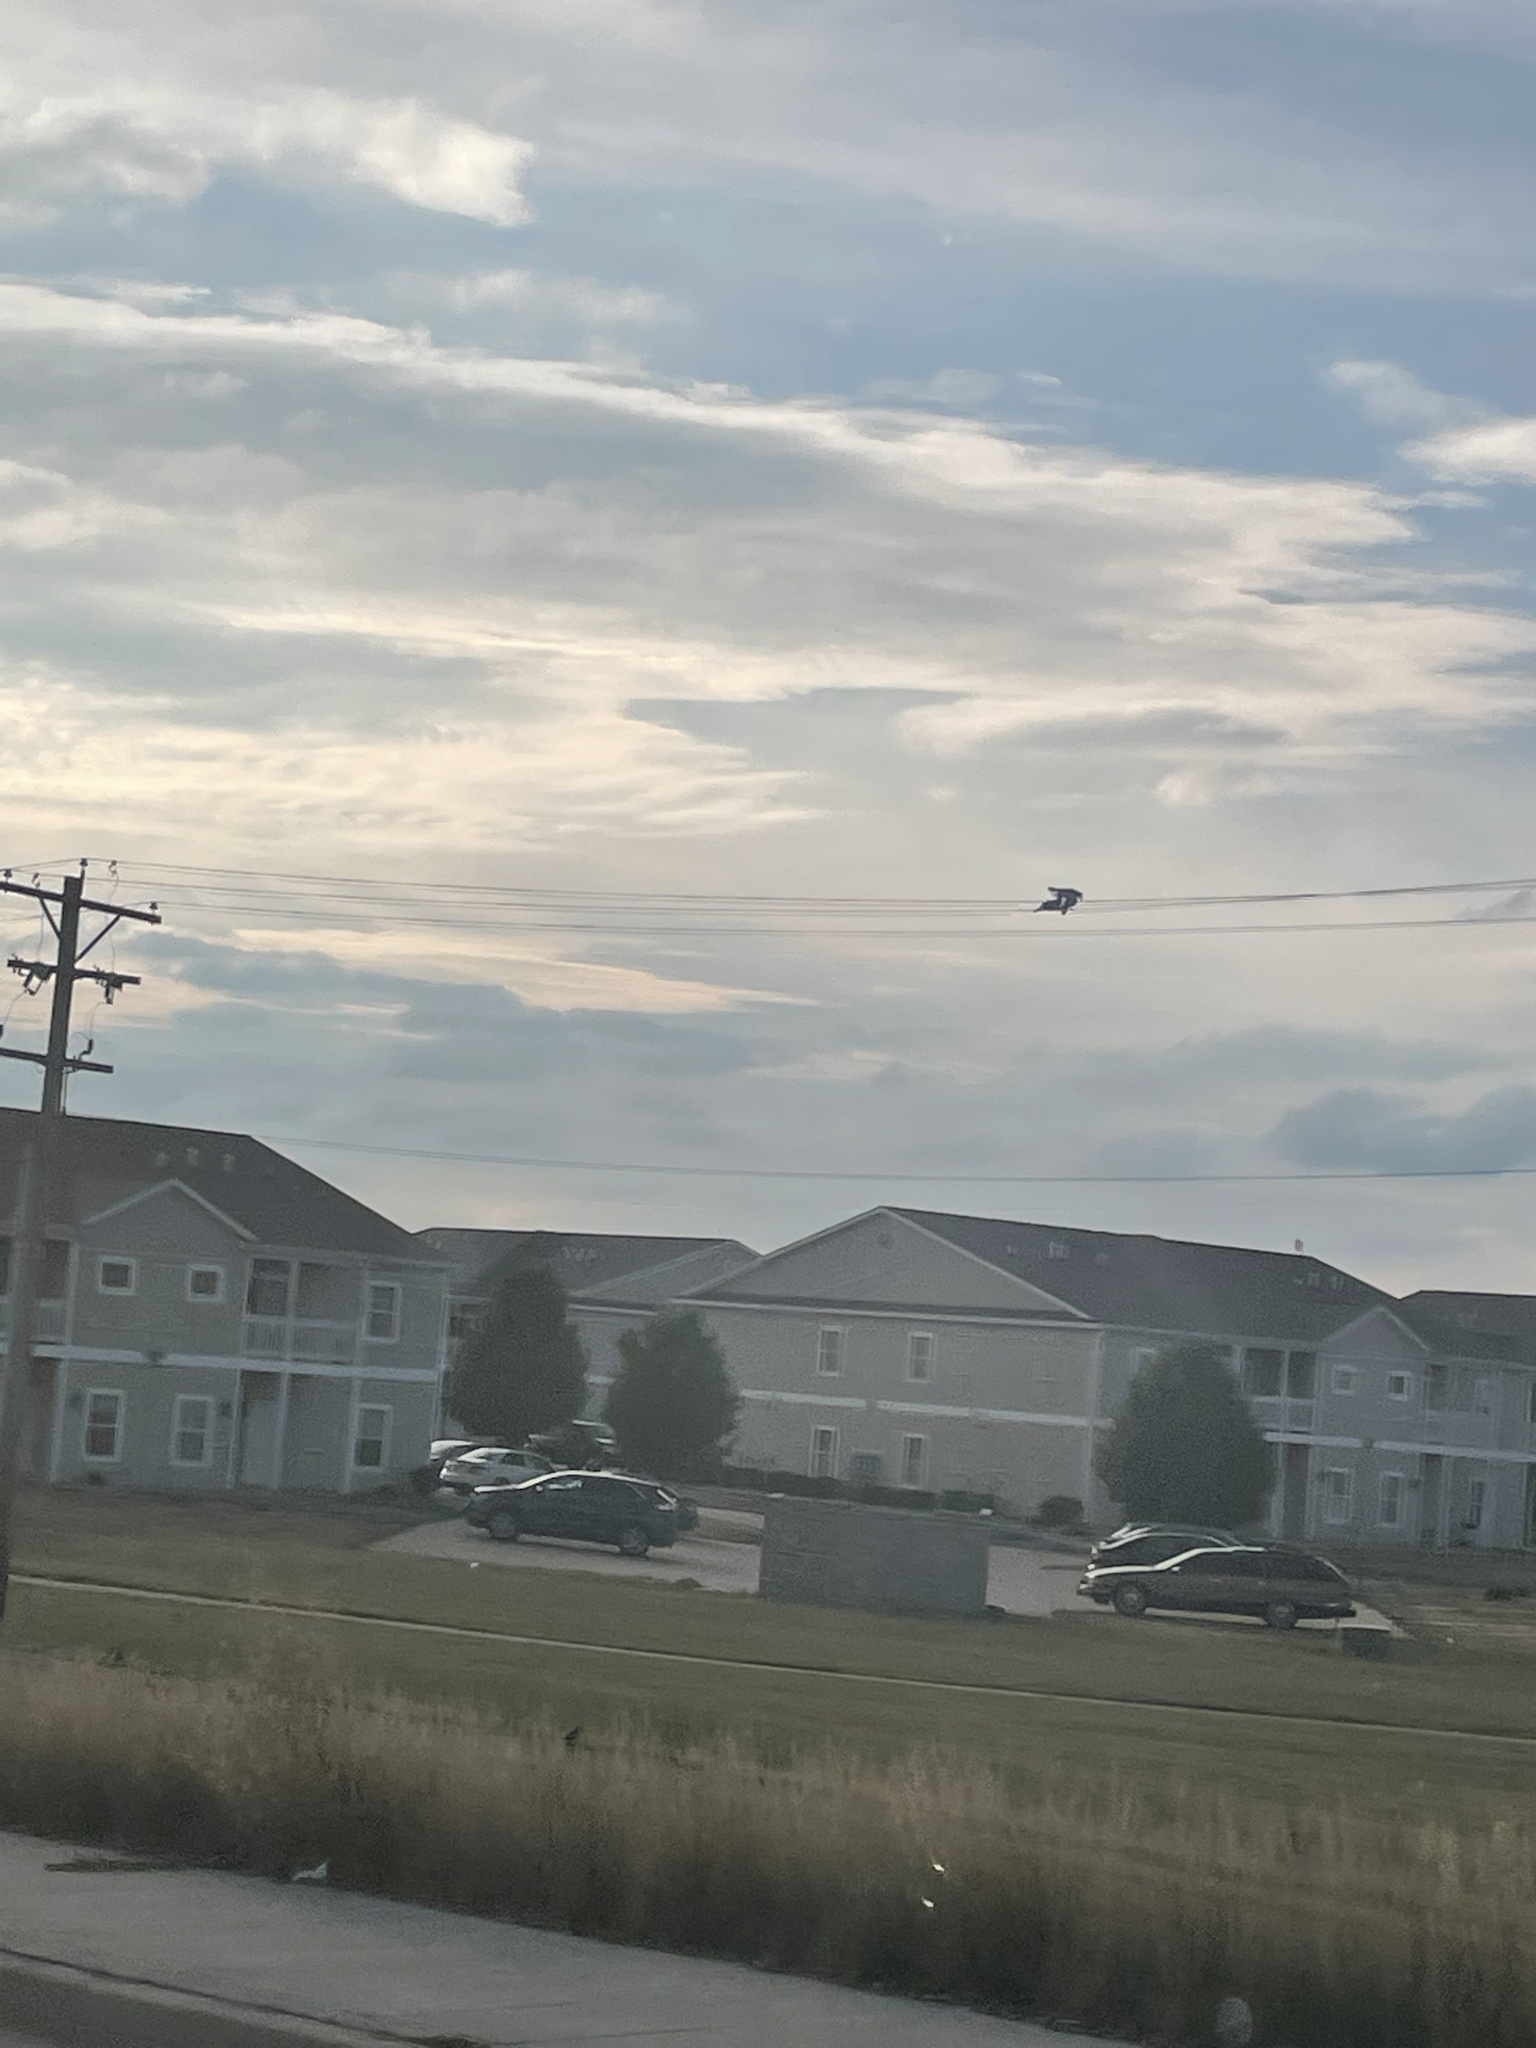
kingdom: Animalia
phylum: Chordata
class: Aves
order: Passeriformes
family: Corvidae
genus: Corvus
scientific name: Corvus brachyrhynchos
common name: American crow
